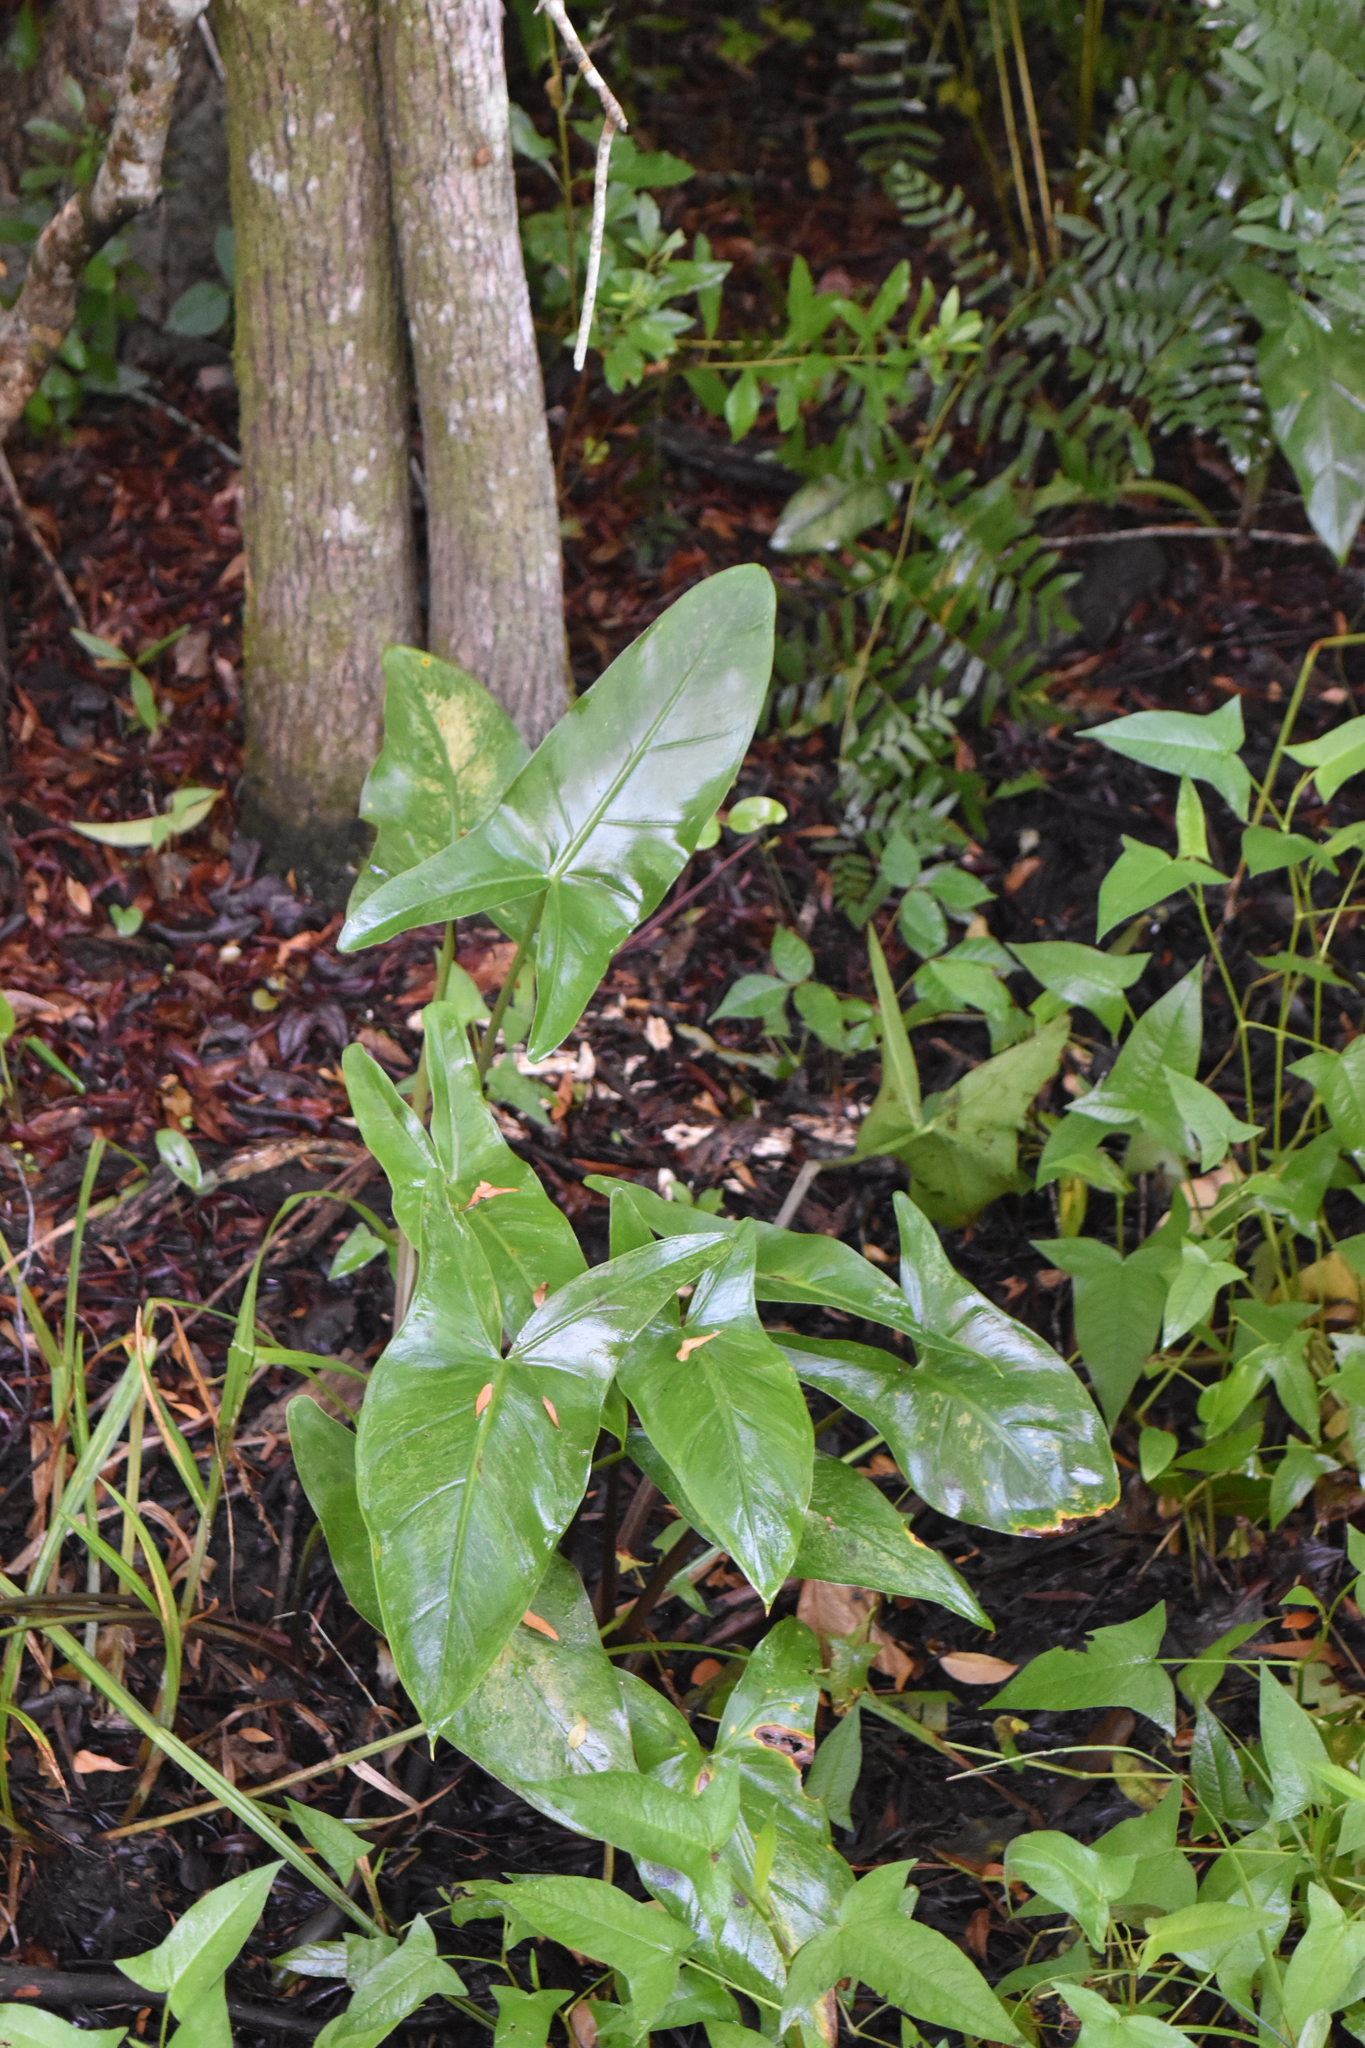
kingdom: Plantae
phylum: Tracheophyta
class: Liliopsida
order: Alismatales
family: Araceae
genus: Peltandra
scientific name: Peltandra virginica
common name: Arrow arum
